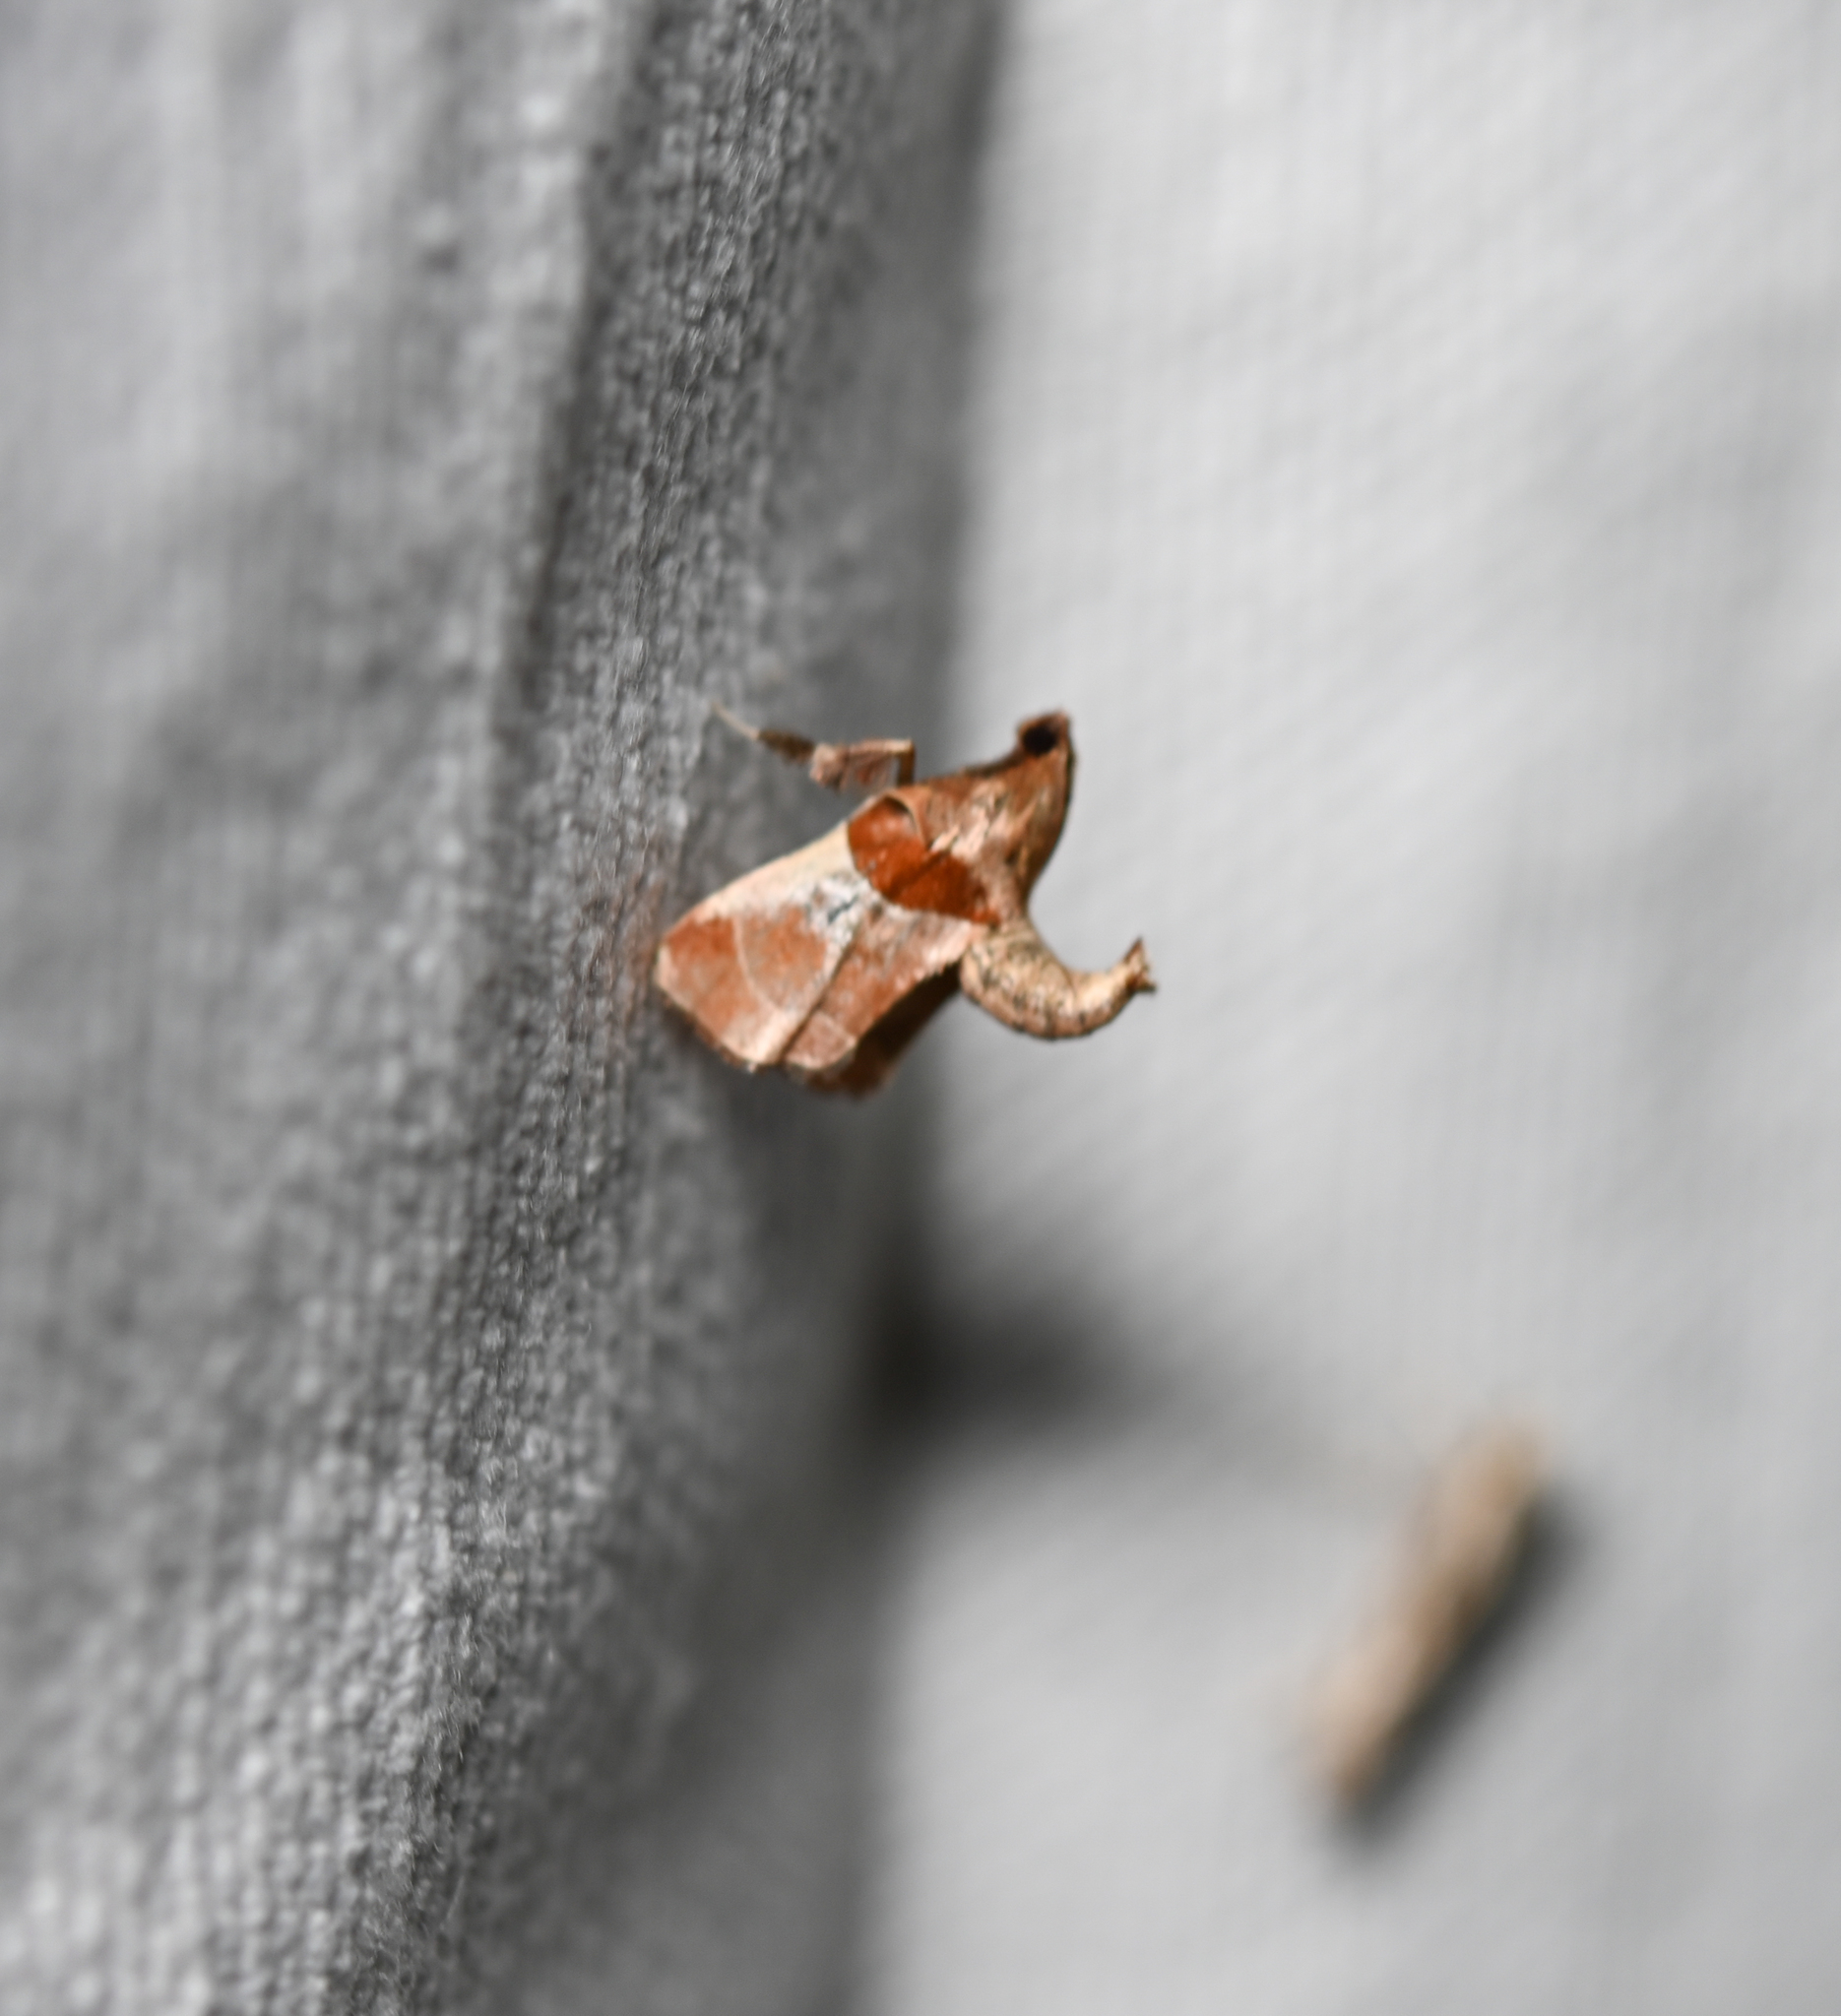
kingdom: Animalia
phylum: Arthropoda
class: Insecta
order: Lepidoptera
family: Pyralidae
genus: Tosale
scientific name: Tosale oviplagalis
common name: Dimorphic tosale moth
